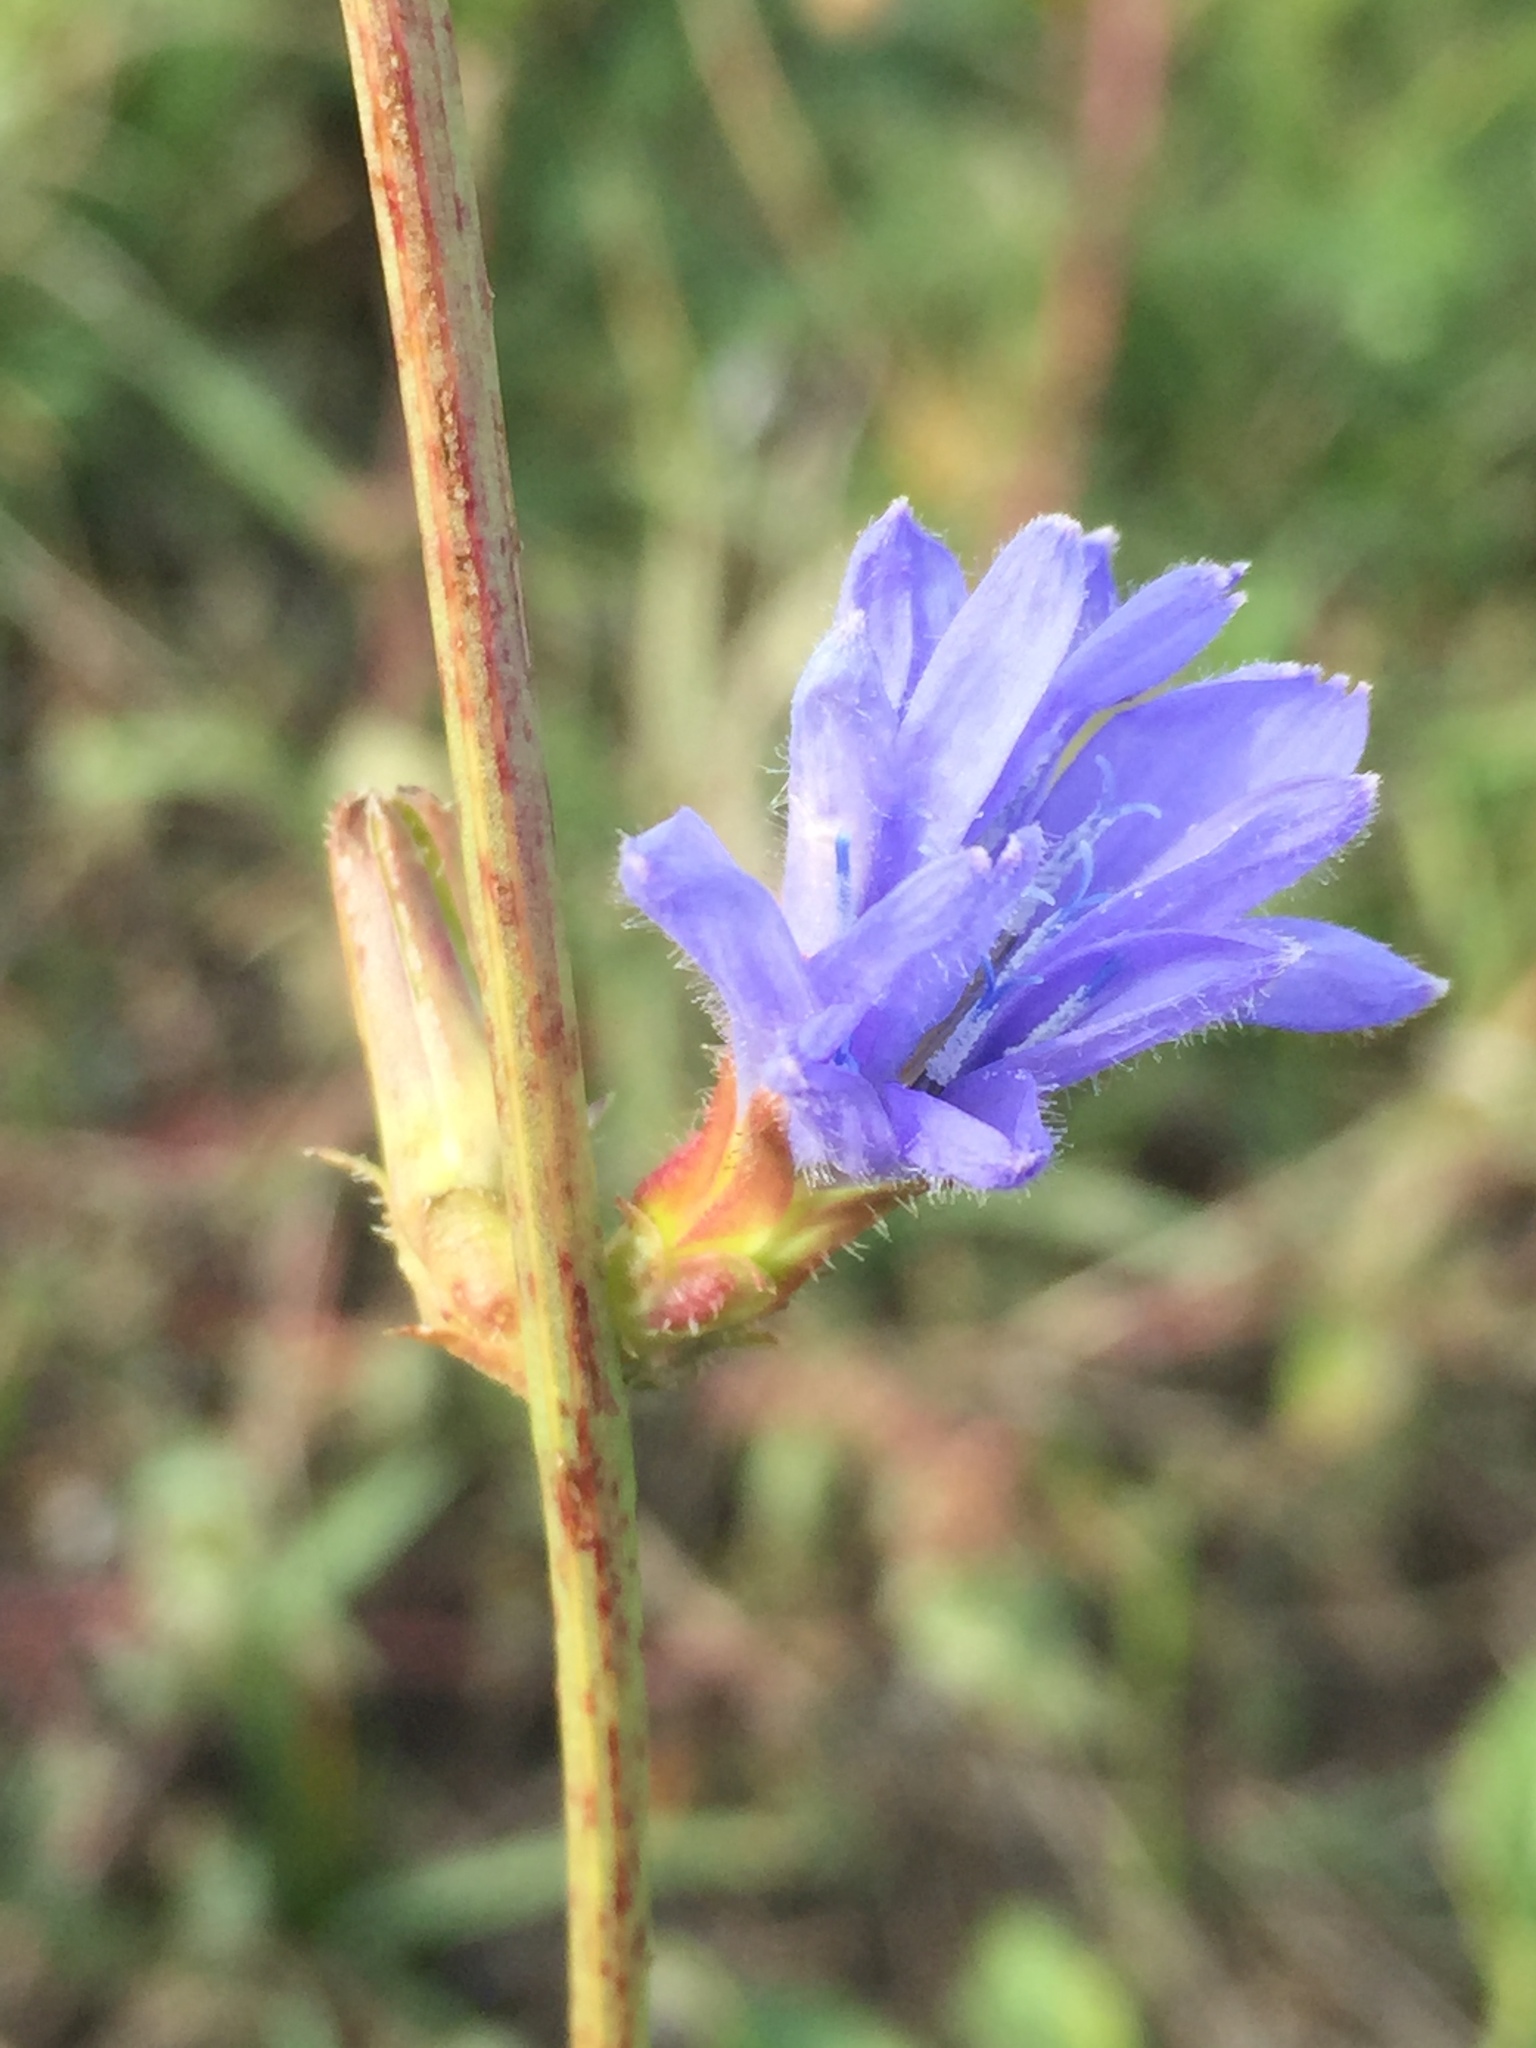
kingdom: Plantae
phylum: Tracheophyta
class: Magnoliopsida
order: Asterales
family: Asteraceae
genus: Cichorium
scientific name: Cichorium intybus
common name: Chicory
